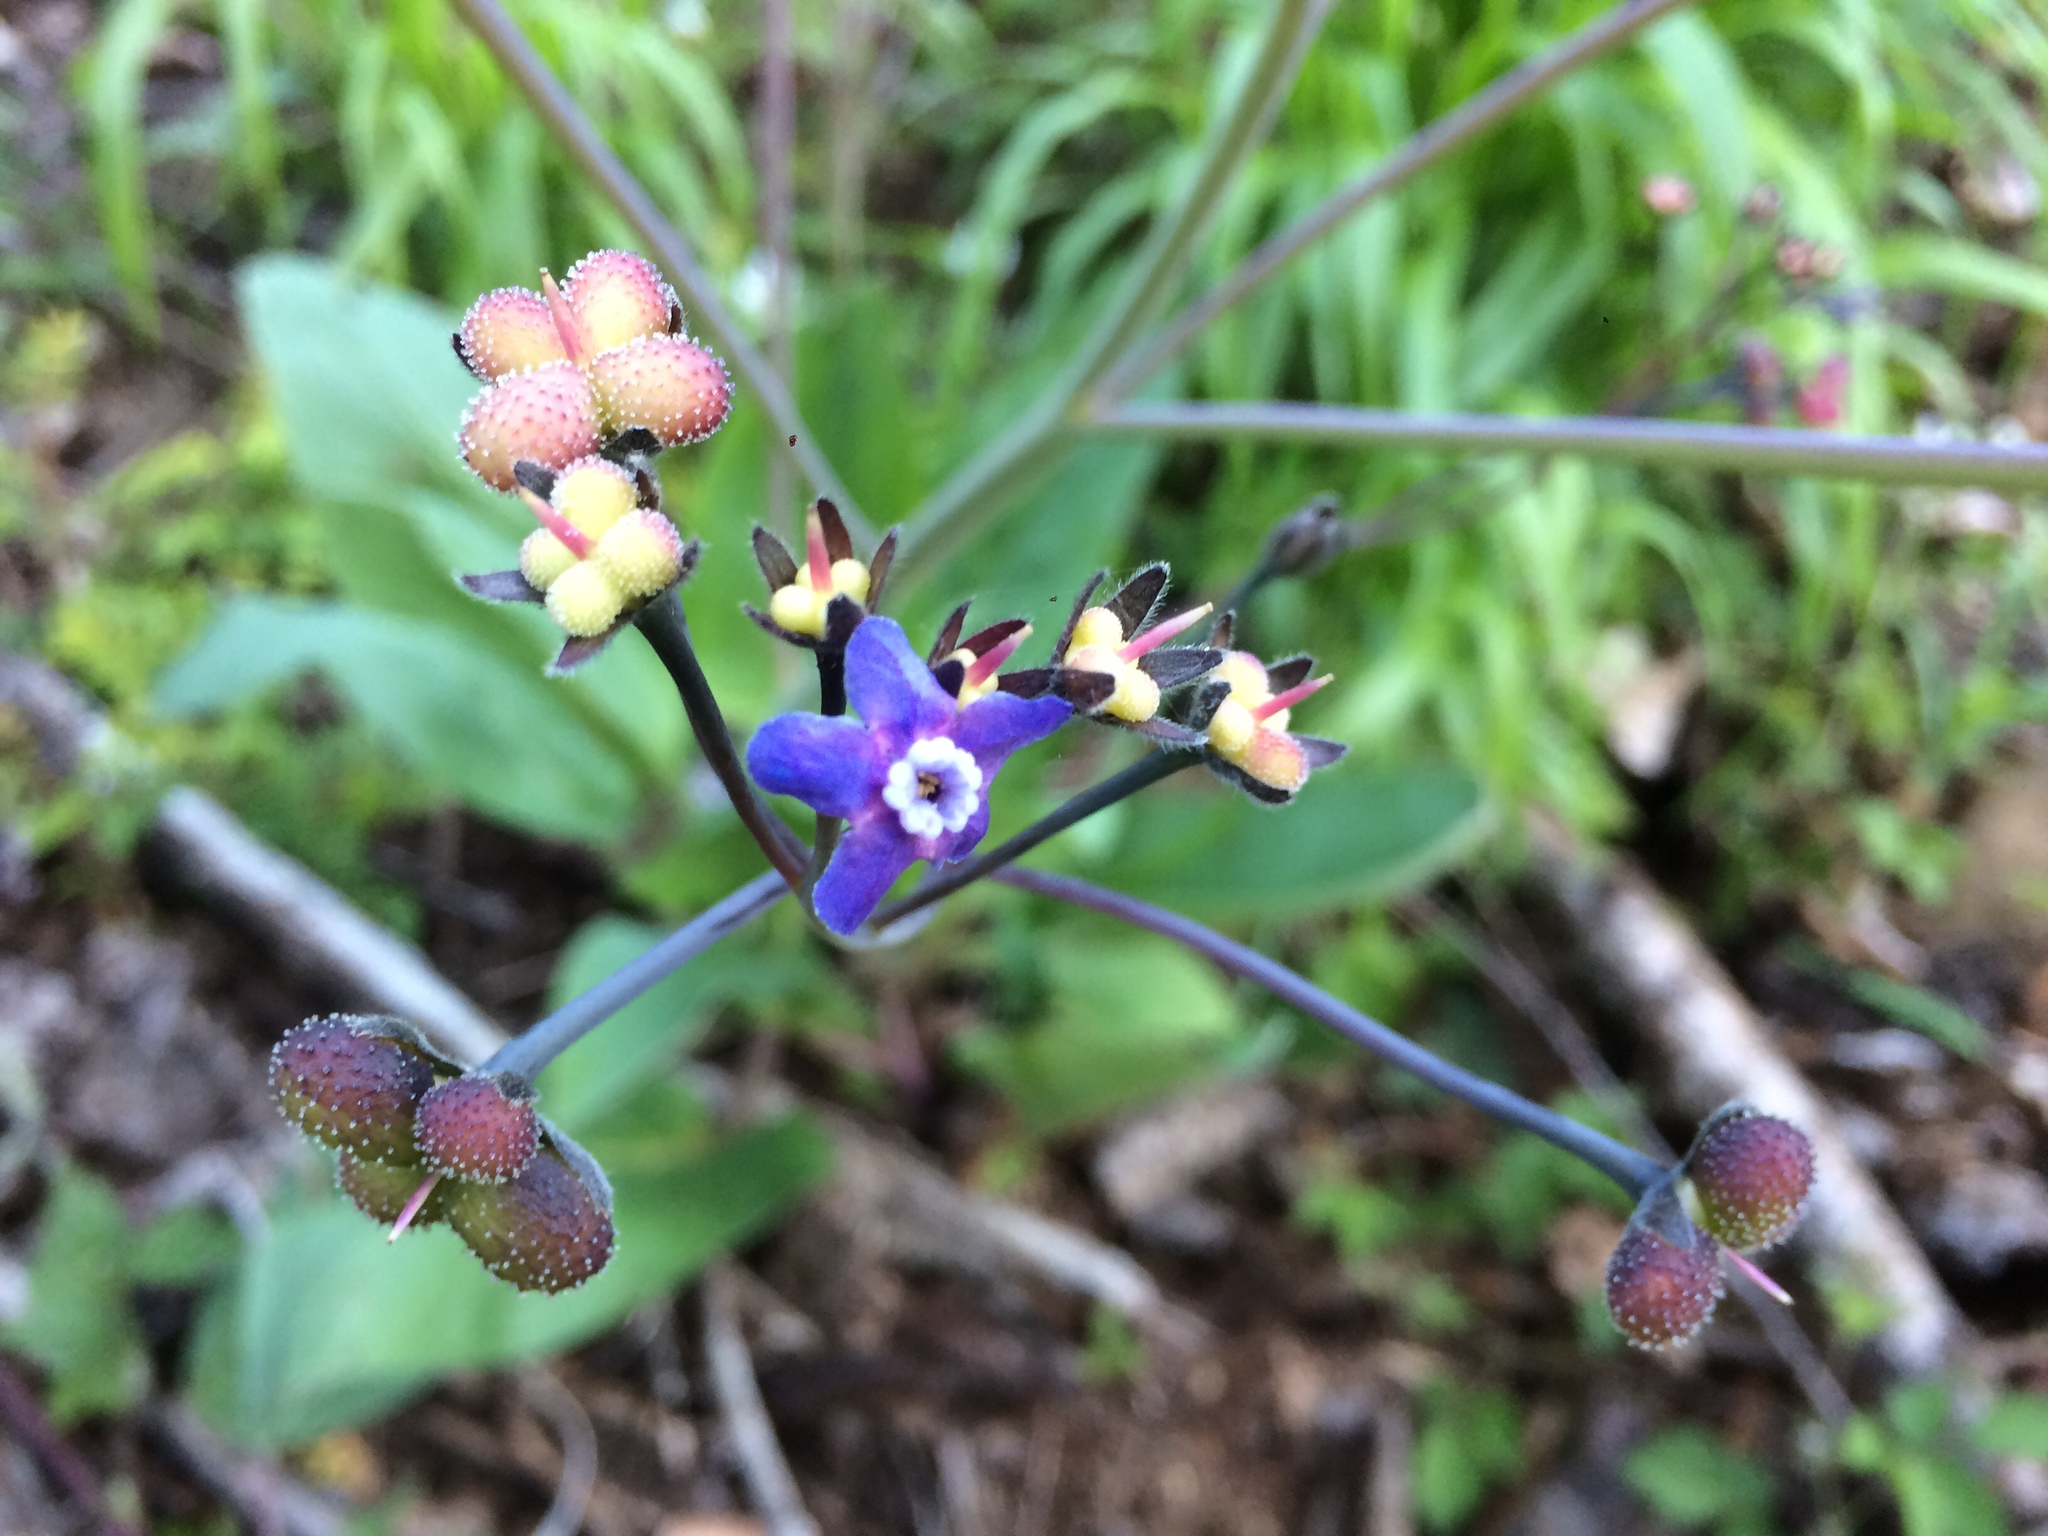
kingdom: Plantae
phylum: Tracheophyta
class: Magnoliopsida
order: Boraginales
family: Boraginaceae
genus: Adelinia
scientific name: Adelinia grande
